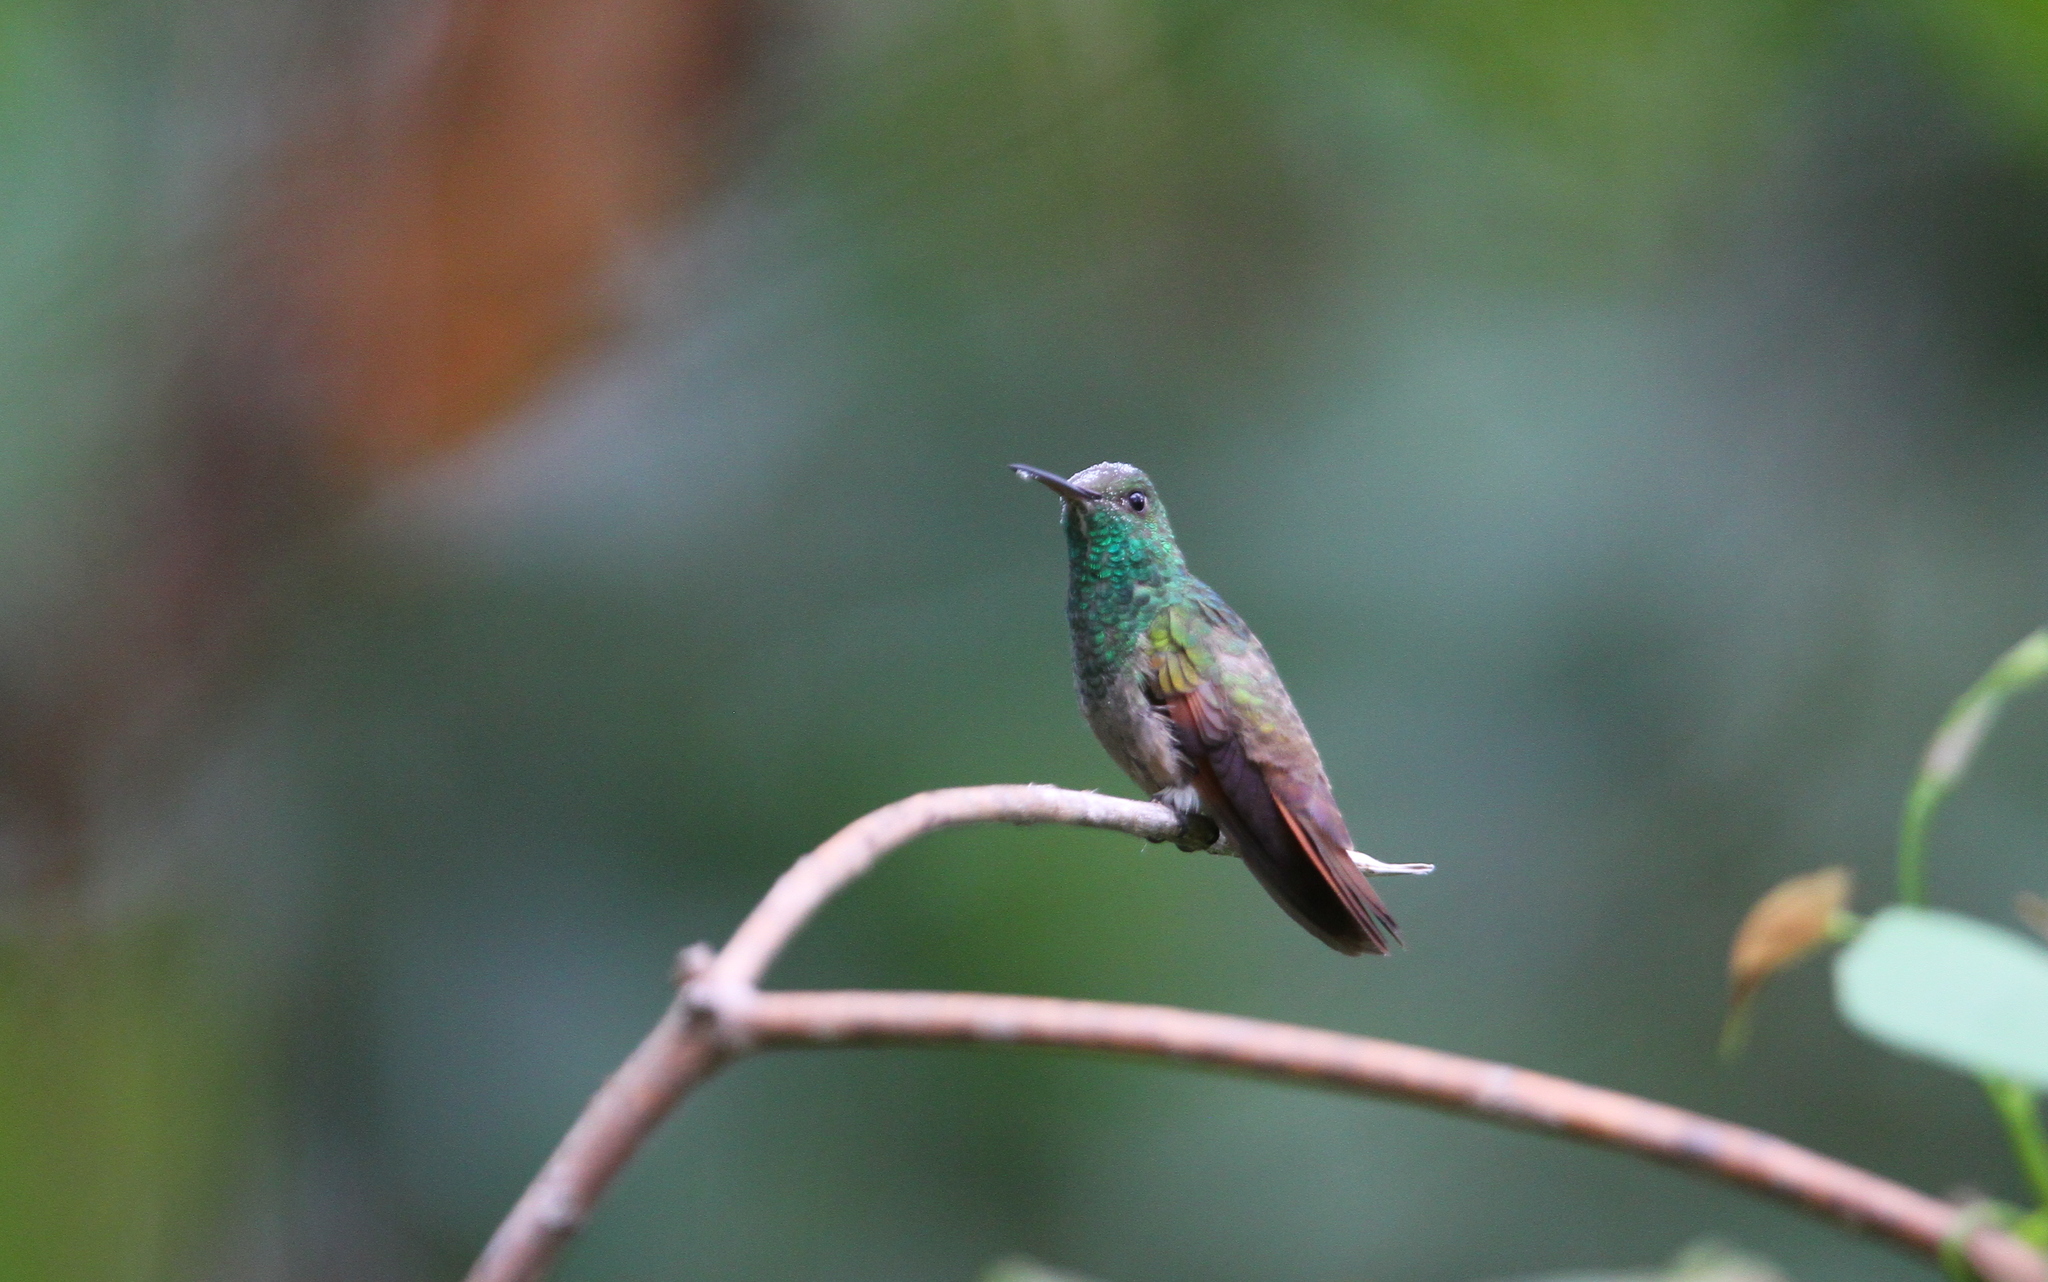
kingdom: Animalia
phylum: Chordata
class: Aves
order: Apodiformes
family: Trochilidae
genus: Saucerottia
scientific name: Saucerottia beryllina
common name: Berylline hummingbird
